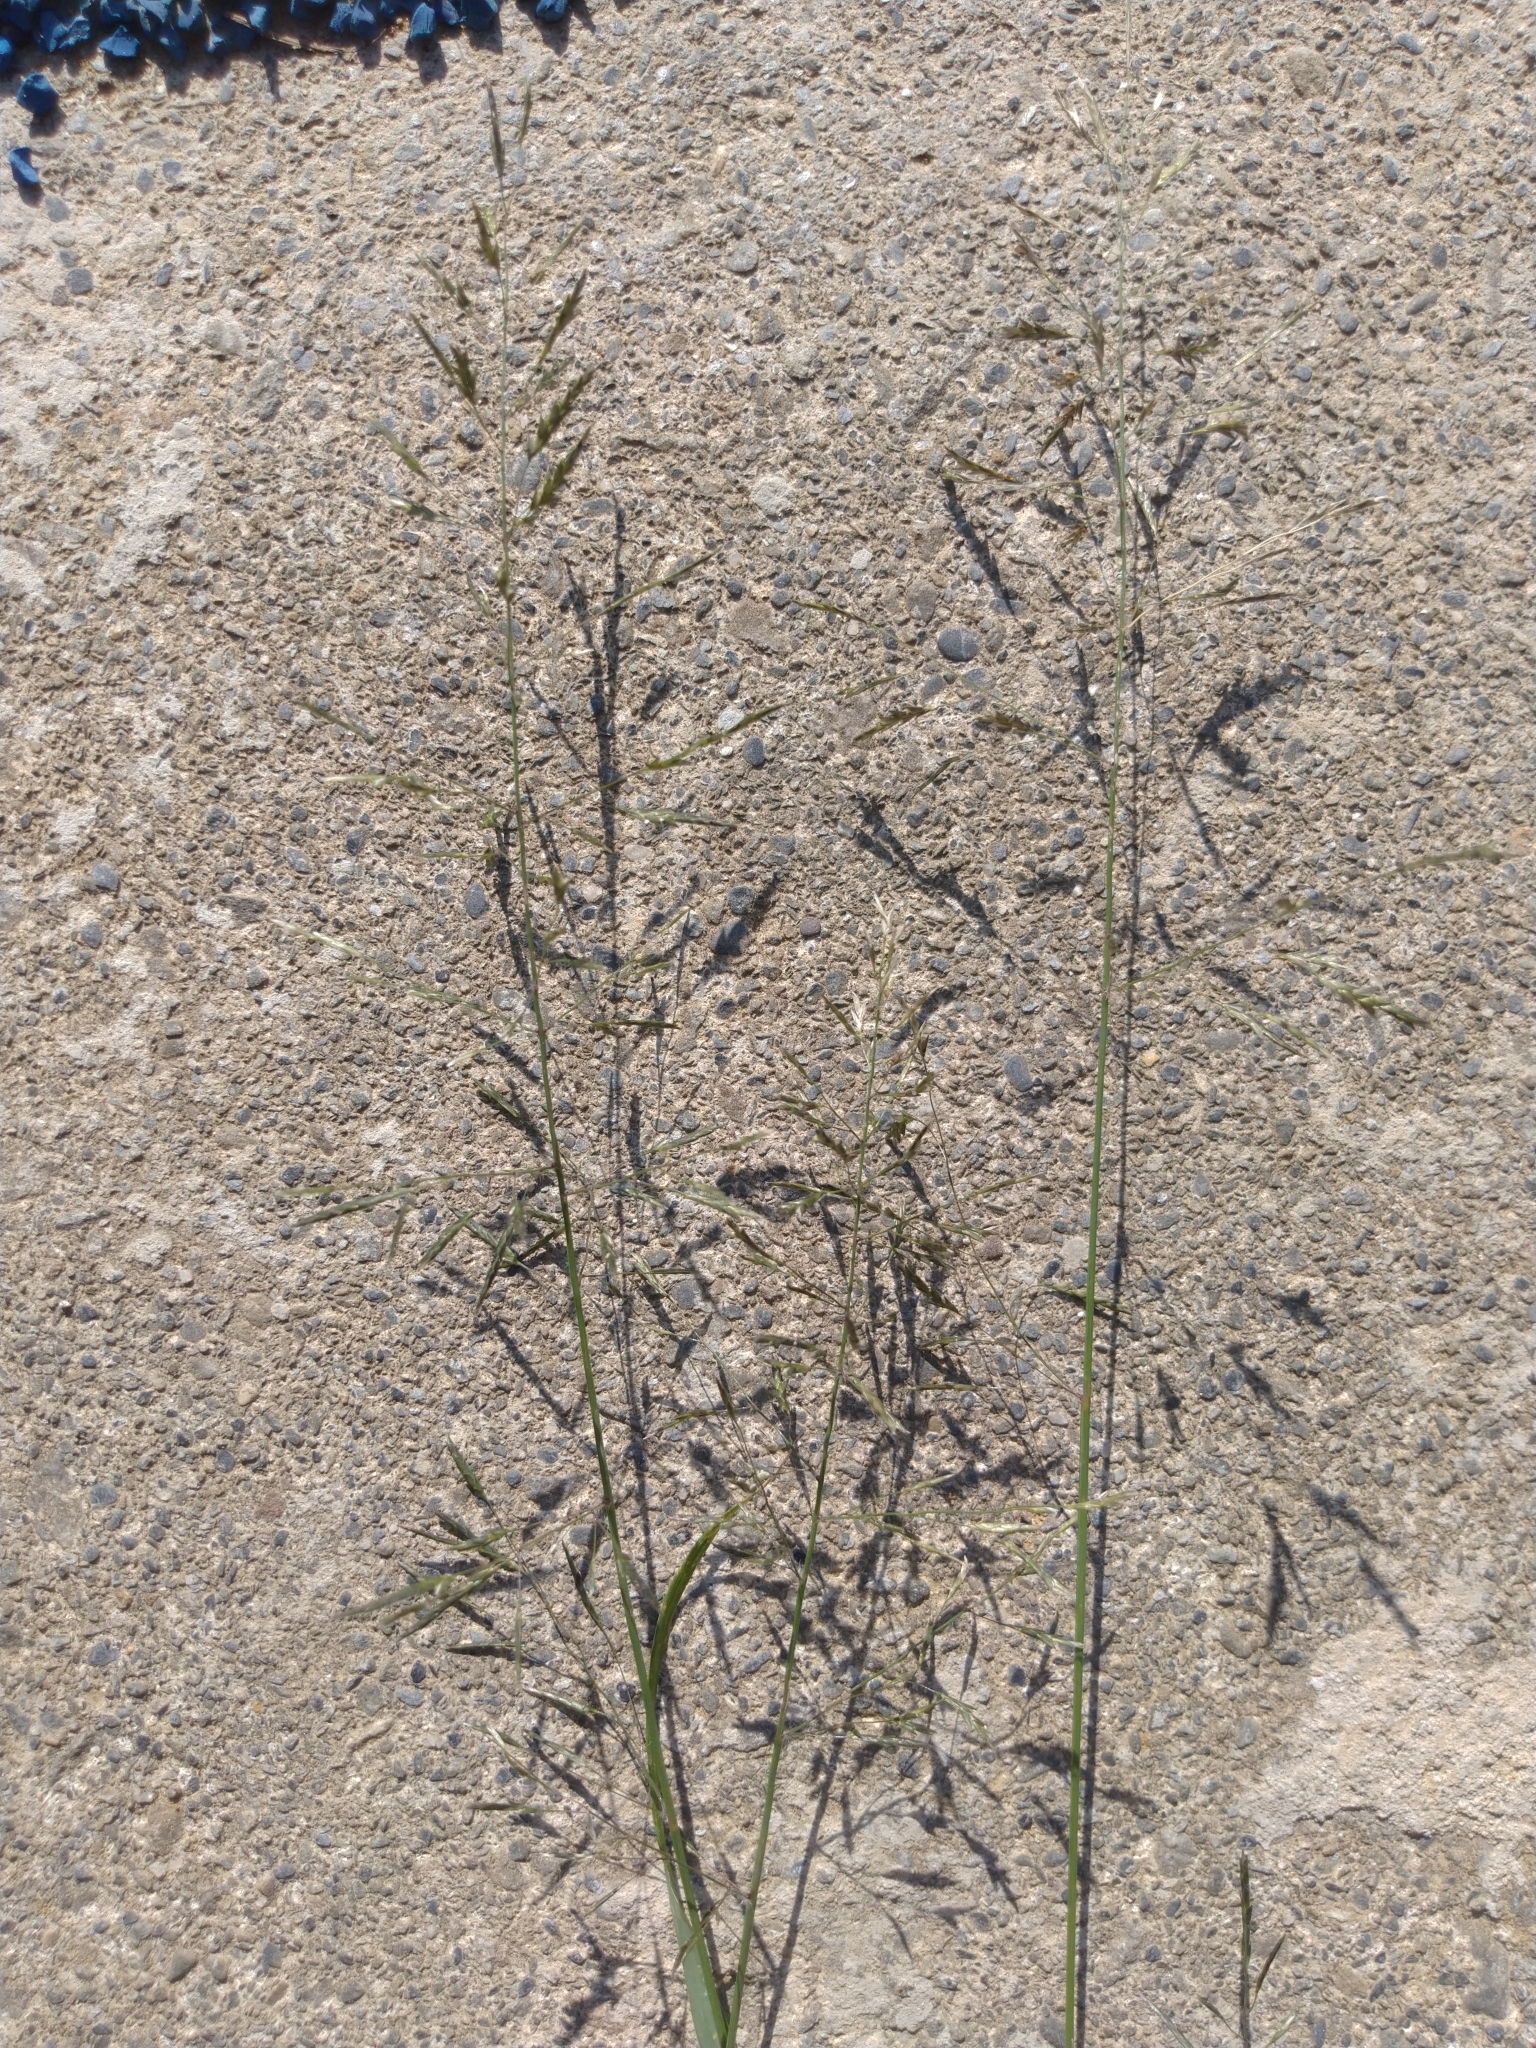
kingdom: Plantae
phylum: Tracheophyta
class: Liliopsida
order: Poales
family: Poaceae
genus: Eragrostis
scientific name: Eragrostis tenuifolia
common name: Elastic grass
